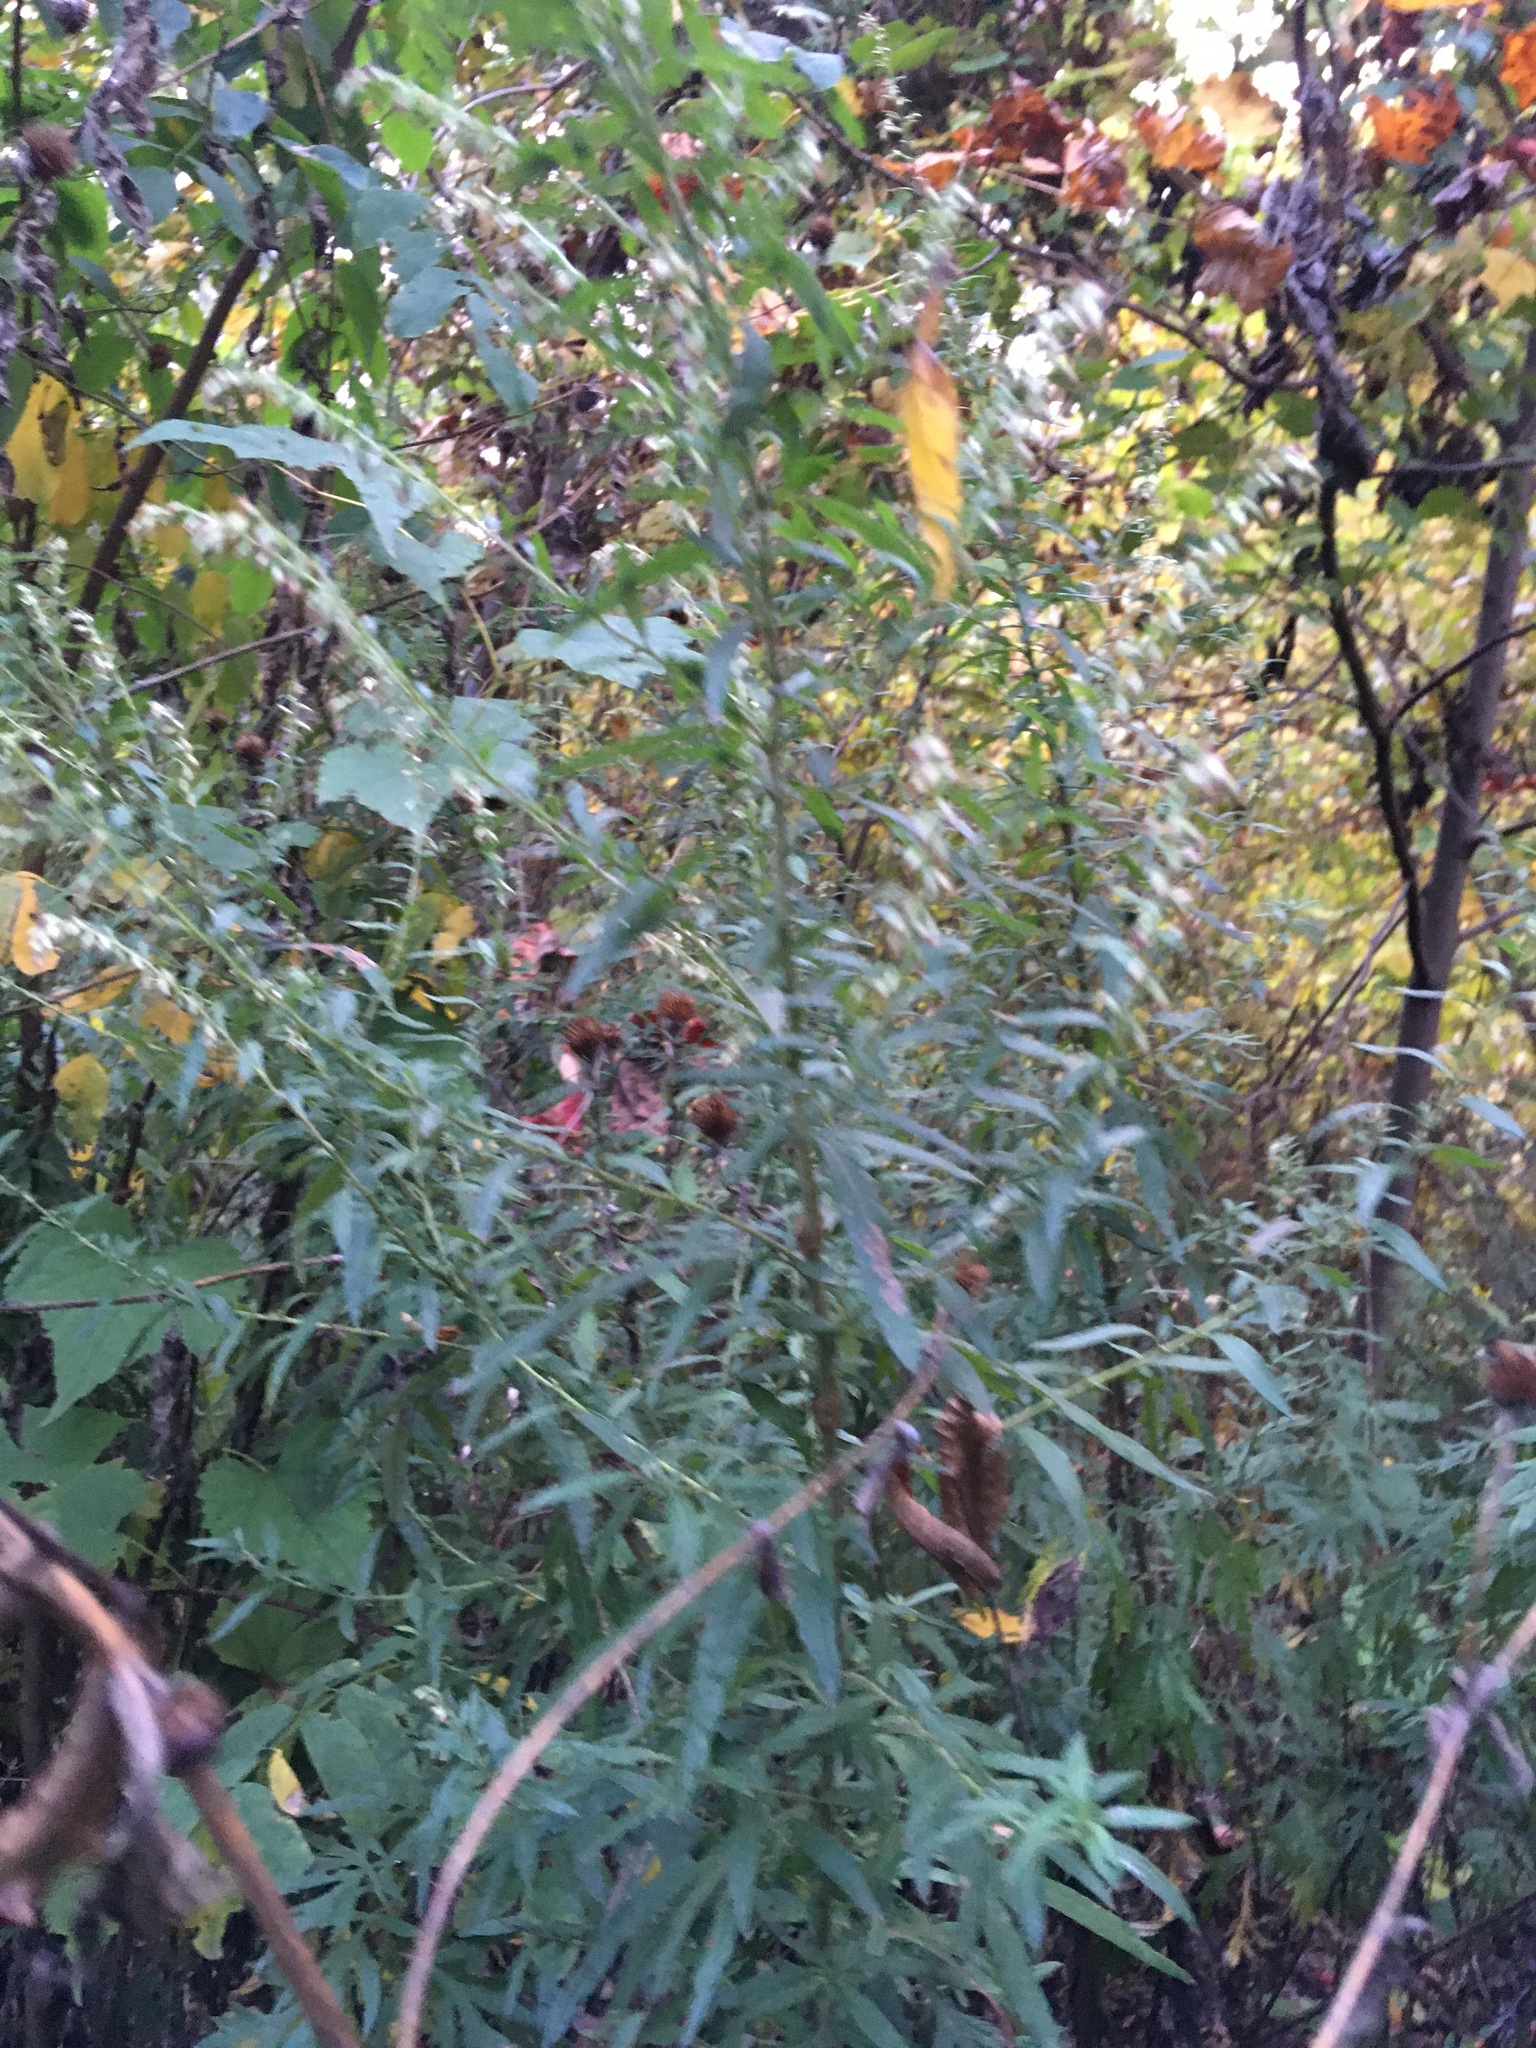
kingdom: Plantae
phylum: Tracheophyta
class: Magnoliopsida
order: Asterales
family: Asteraceae
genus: Artemisia
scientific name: Artemisia vulgaris
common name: Mugwort
